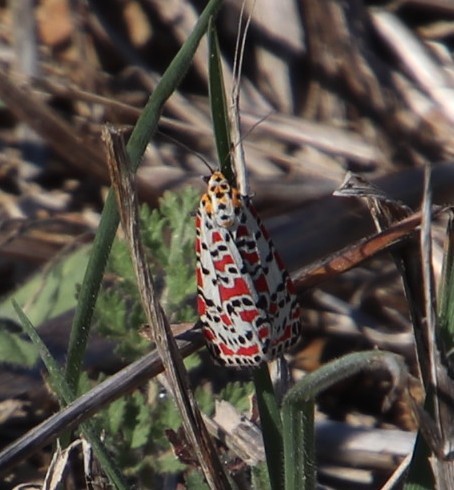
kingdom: Animalia
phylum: Arthropoda
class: Insecta
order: Lepidoptera
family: Erebidae
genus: Utetheisa
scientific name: Utetheisa pulchella
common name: Crimson speckled
